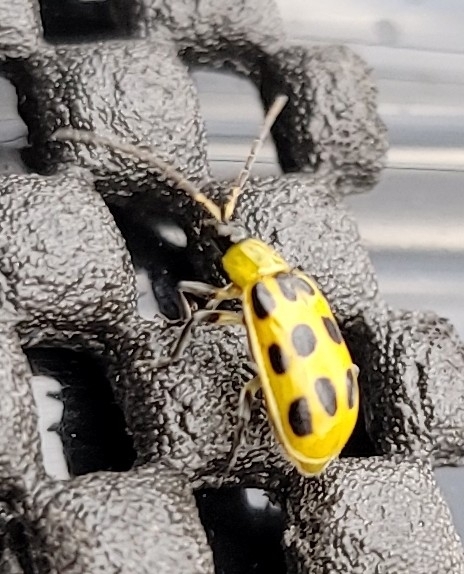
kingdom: Animalia
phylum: Arthropoda
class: Insecta
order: Coleoptera
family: Chrysomelidae
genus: Diabrotica
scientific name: Diabrotica undecimpunctata
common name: Spotted cucumber beetle
